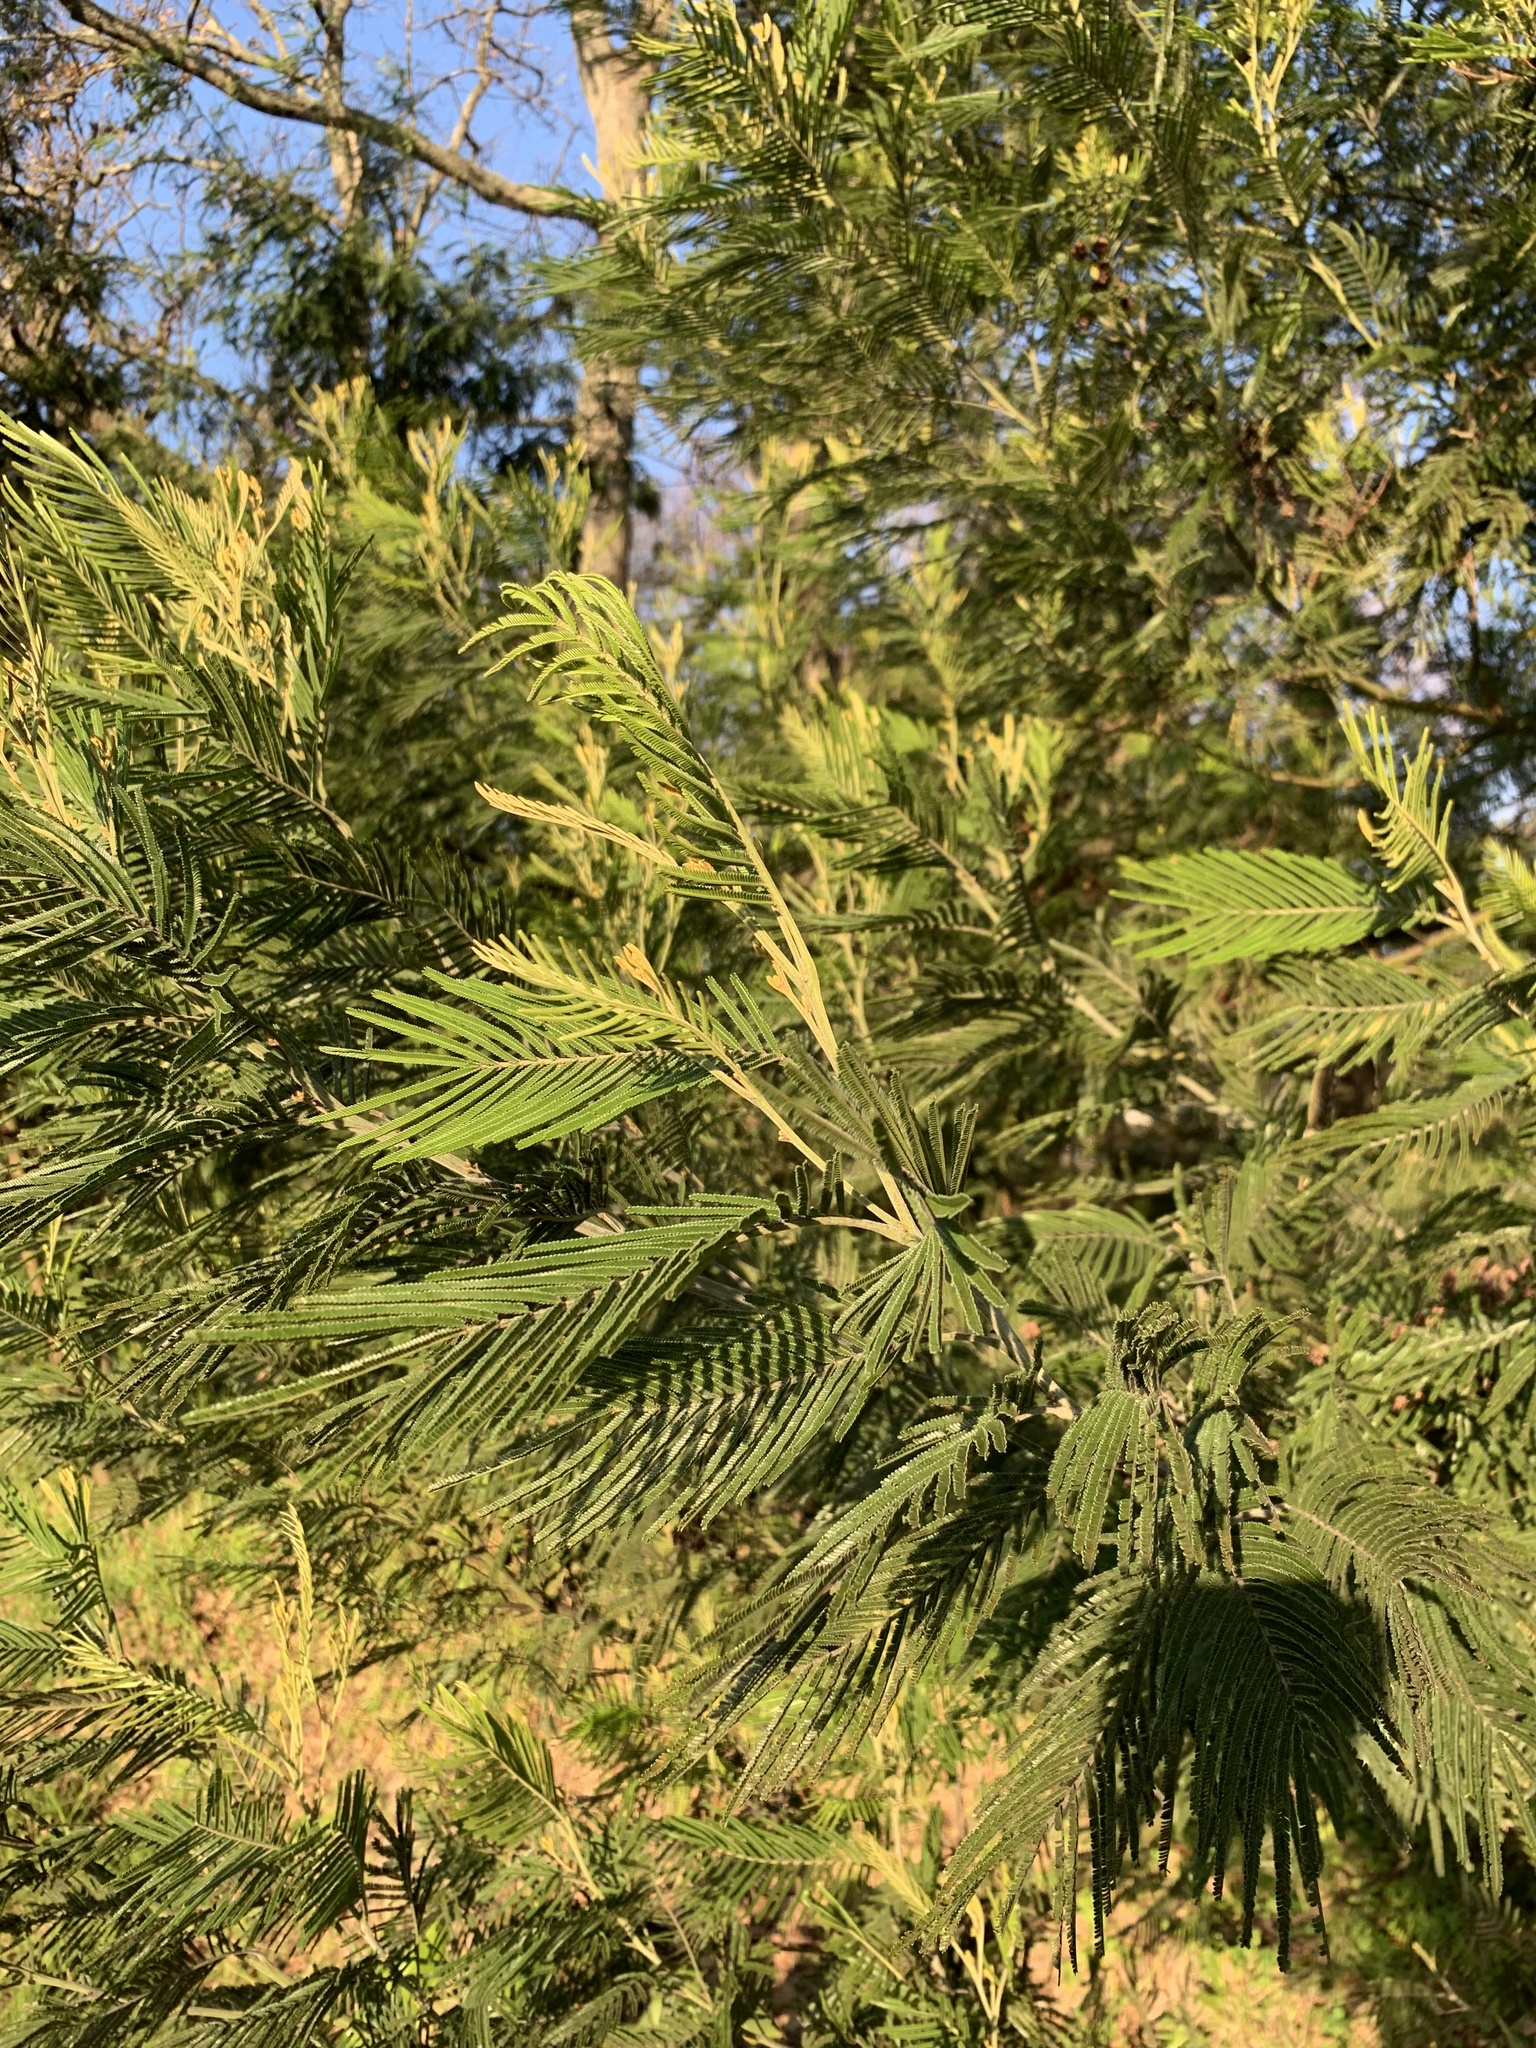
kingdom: Plantae
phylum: Tracheophyta
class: Magnoliopsida
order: Fabales
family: Fabaceae
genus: Acacia
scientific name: Acacia mearnsii
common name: Black wattle
